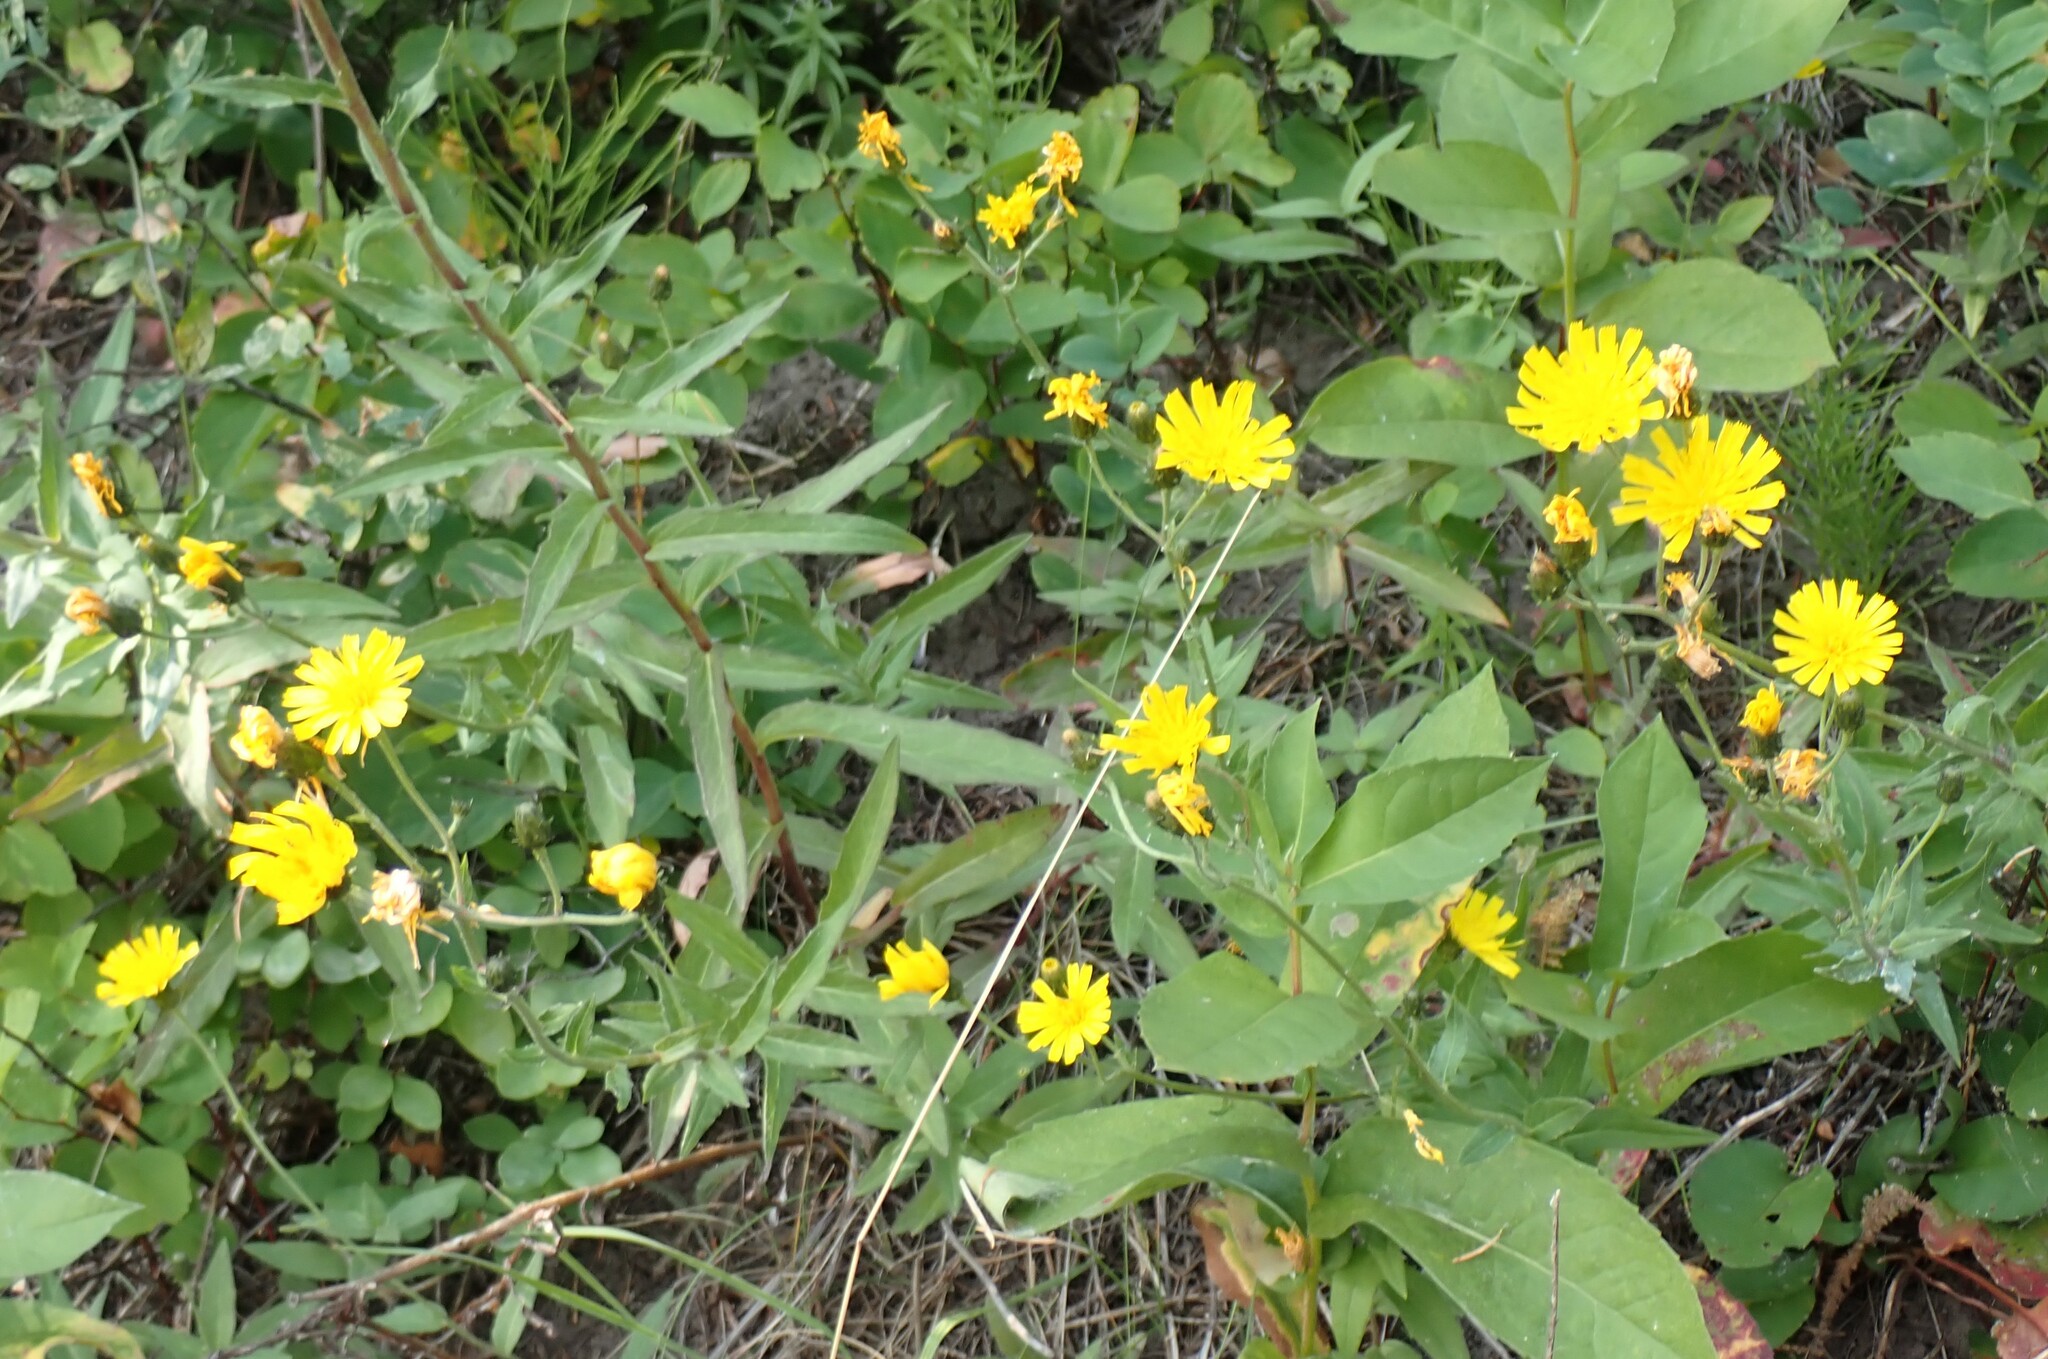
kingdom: Plantae
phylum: Tracheophyta
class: Magnoliopsida
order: Asterales
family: Asteraceae
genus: Hieracium
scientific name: Hieracium umbellatum
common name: Northern hawkweed
